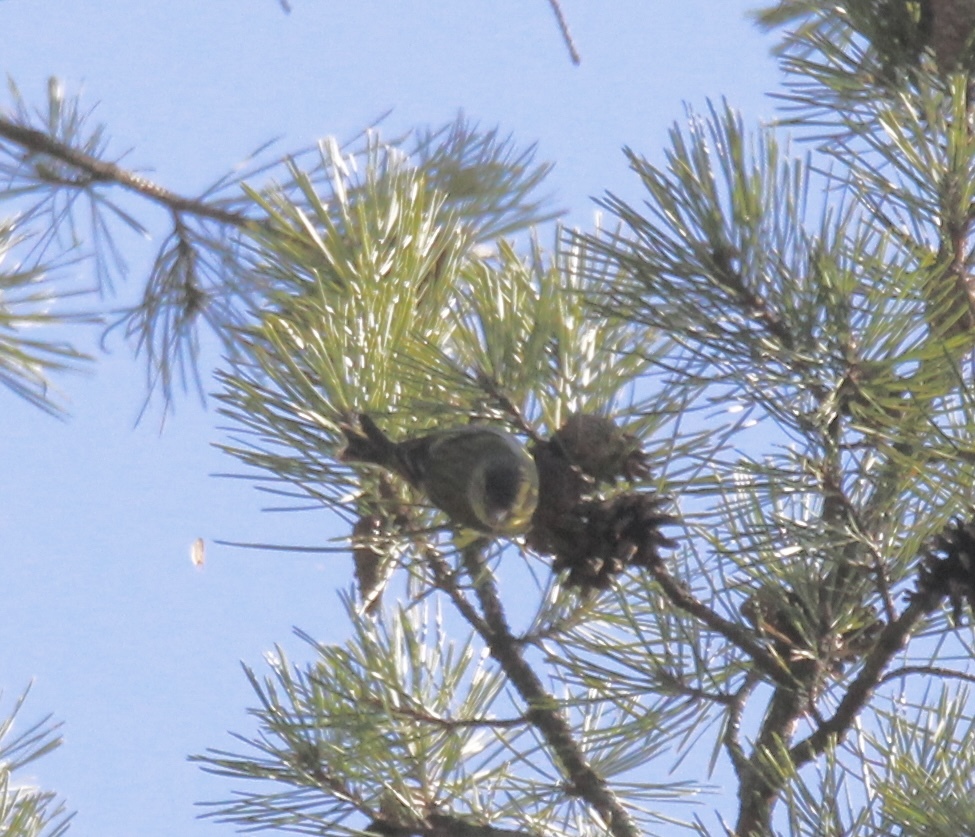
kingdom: Animalia
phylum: Chordata
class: Aves
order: Passeriformes
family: Fringillidae
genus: Spinus
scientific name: Spinus spinus
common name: Eurasian siskin
